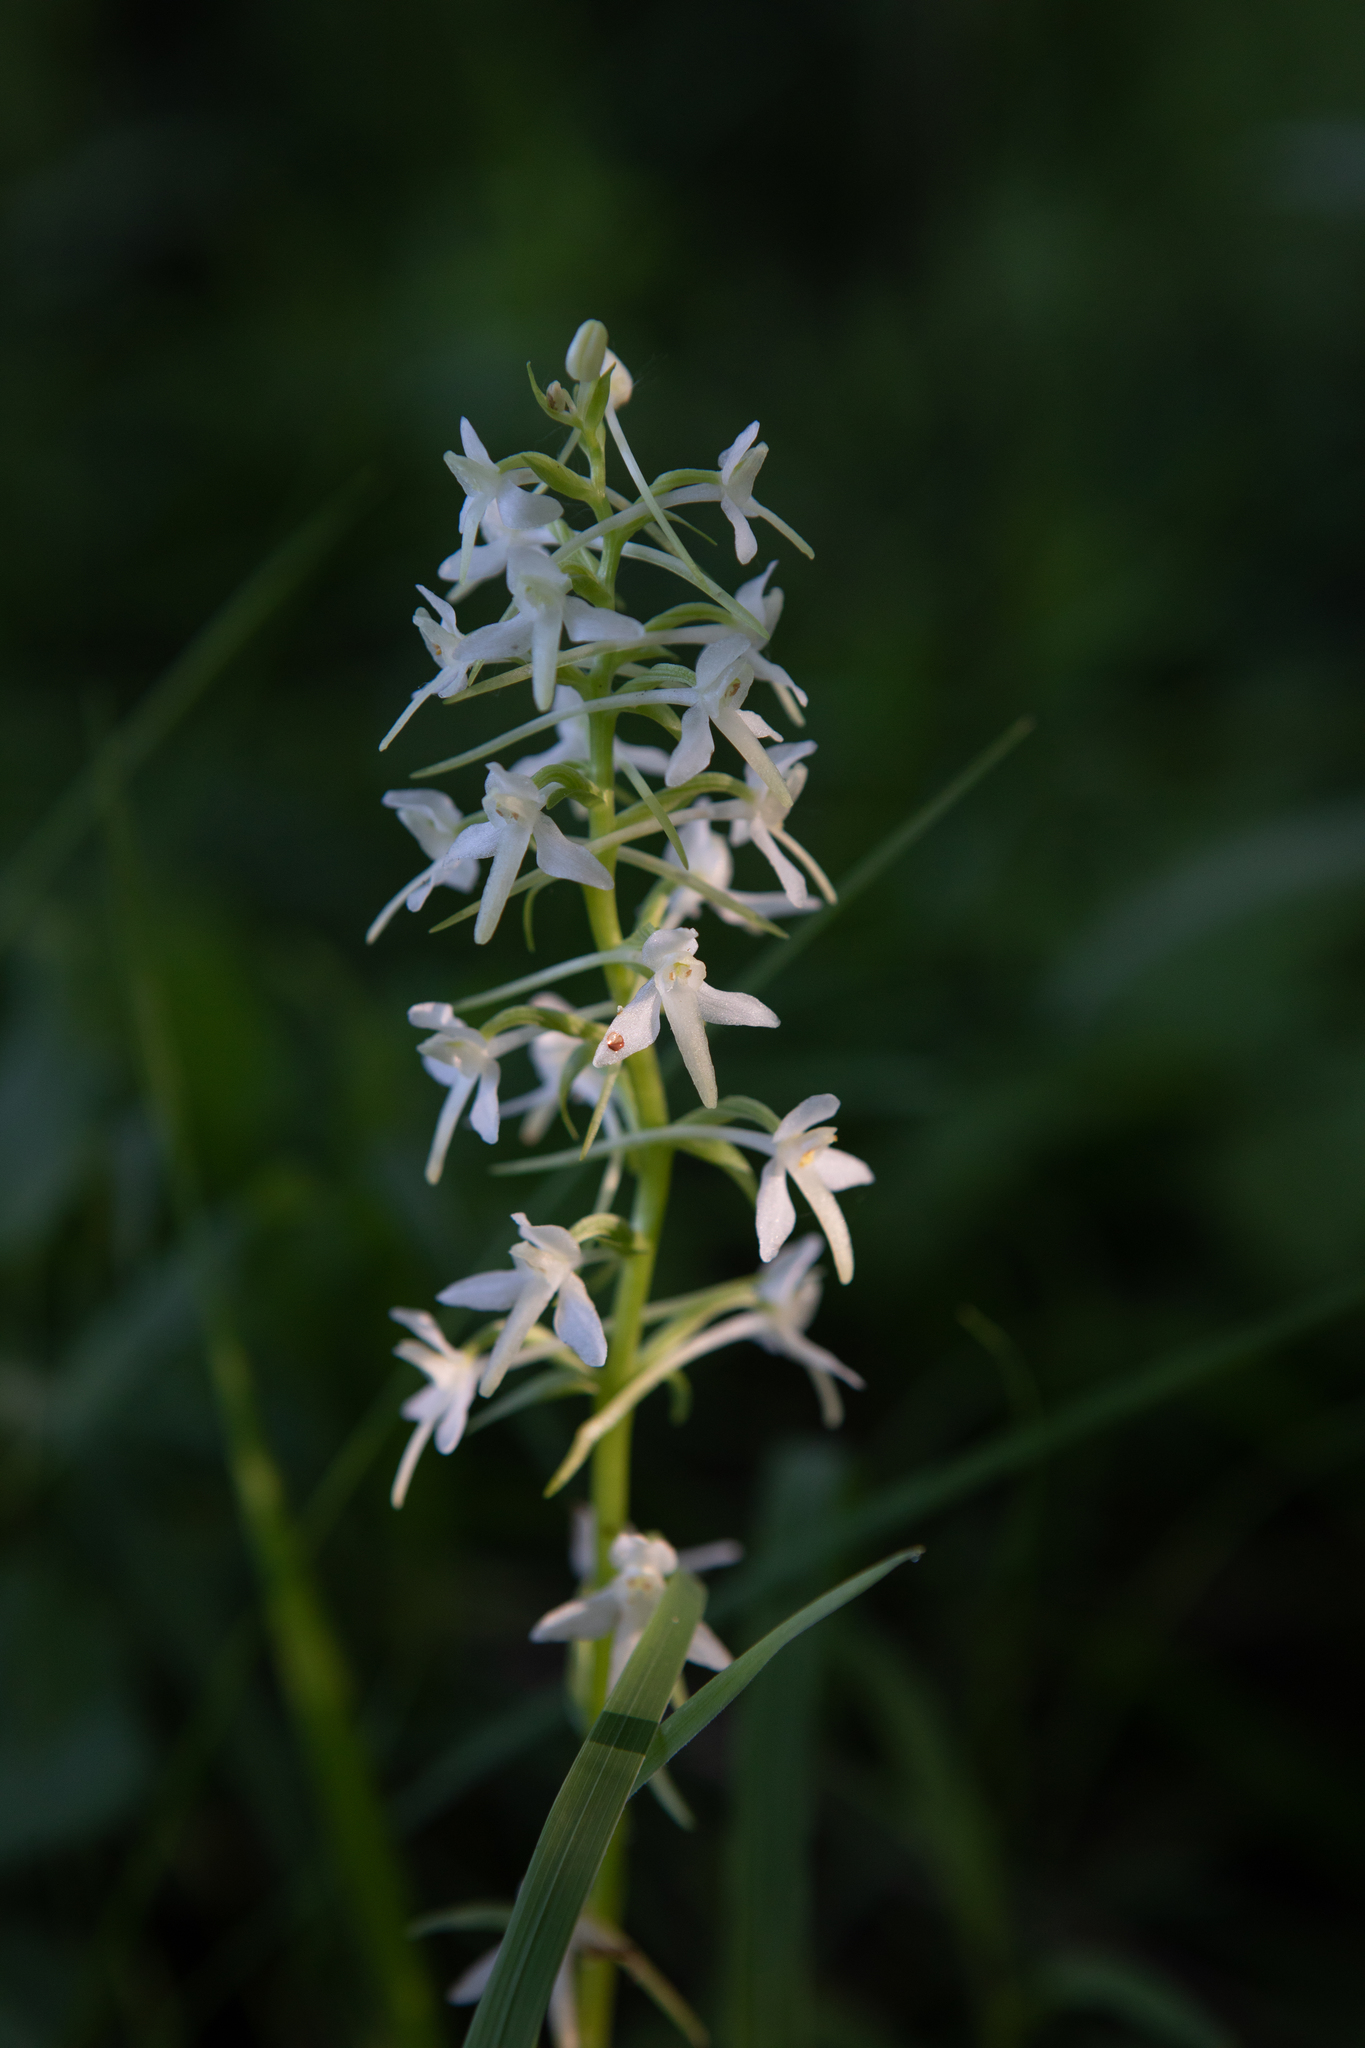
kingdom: Plantae
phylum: Tracheophyta
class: Liliopsida
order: Asparagales
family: Orchidaceae
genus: Platanthera
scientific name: Platanthera bifolia
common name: Lesser butterfly-orchid
